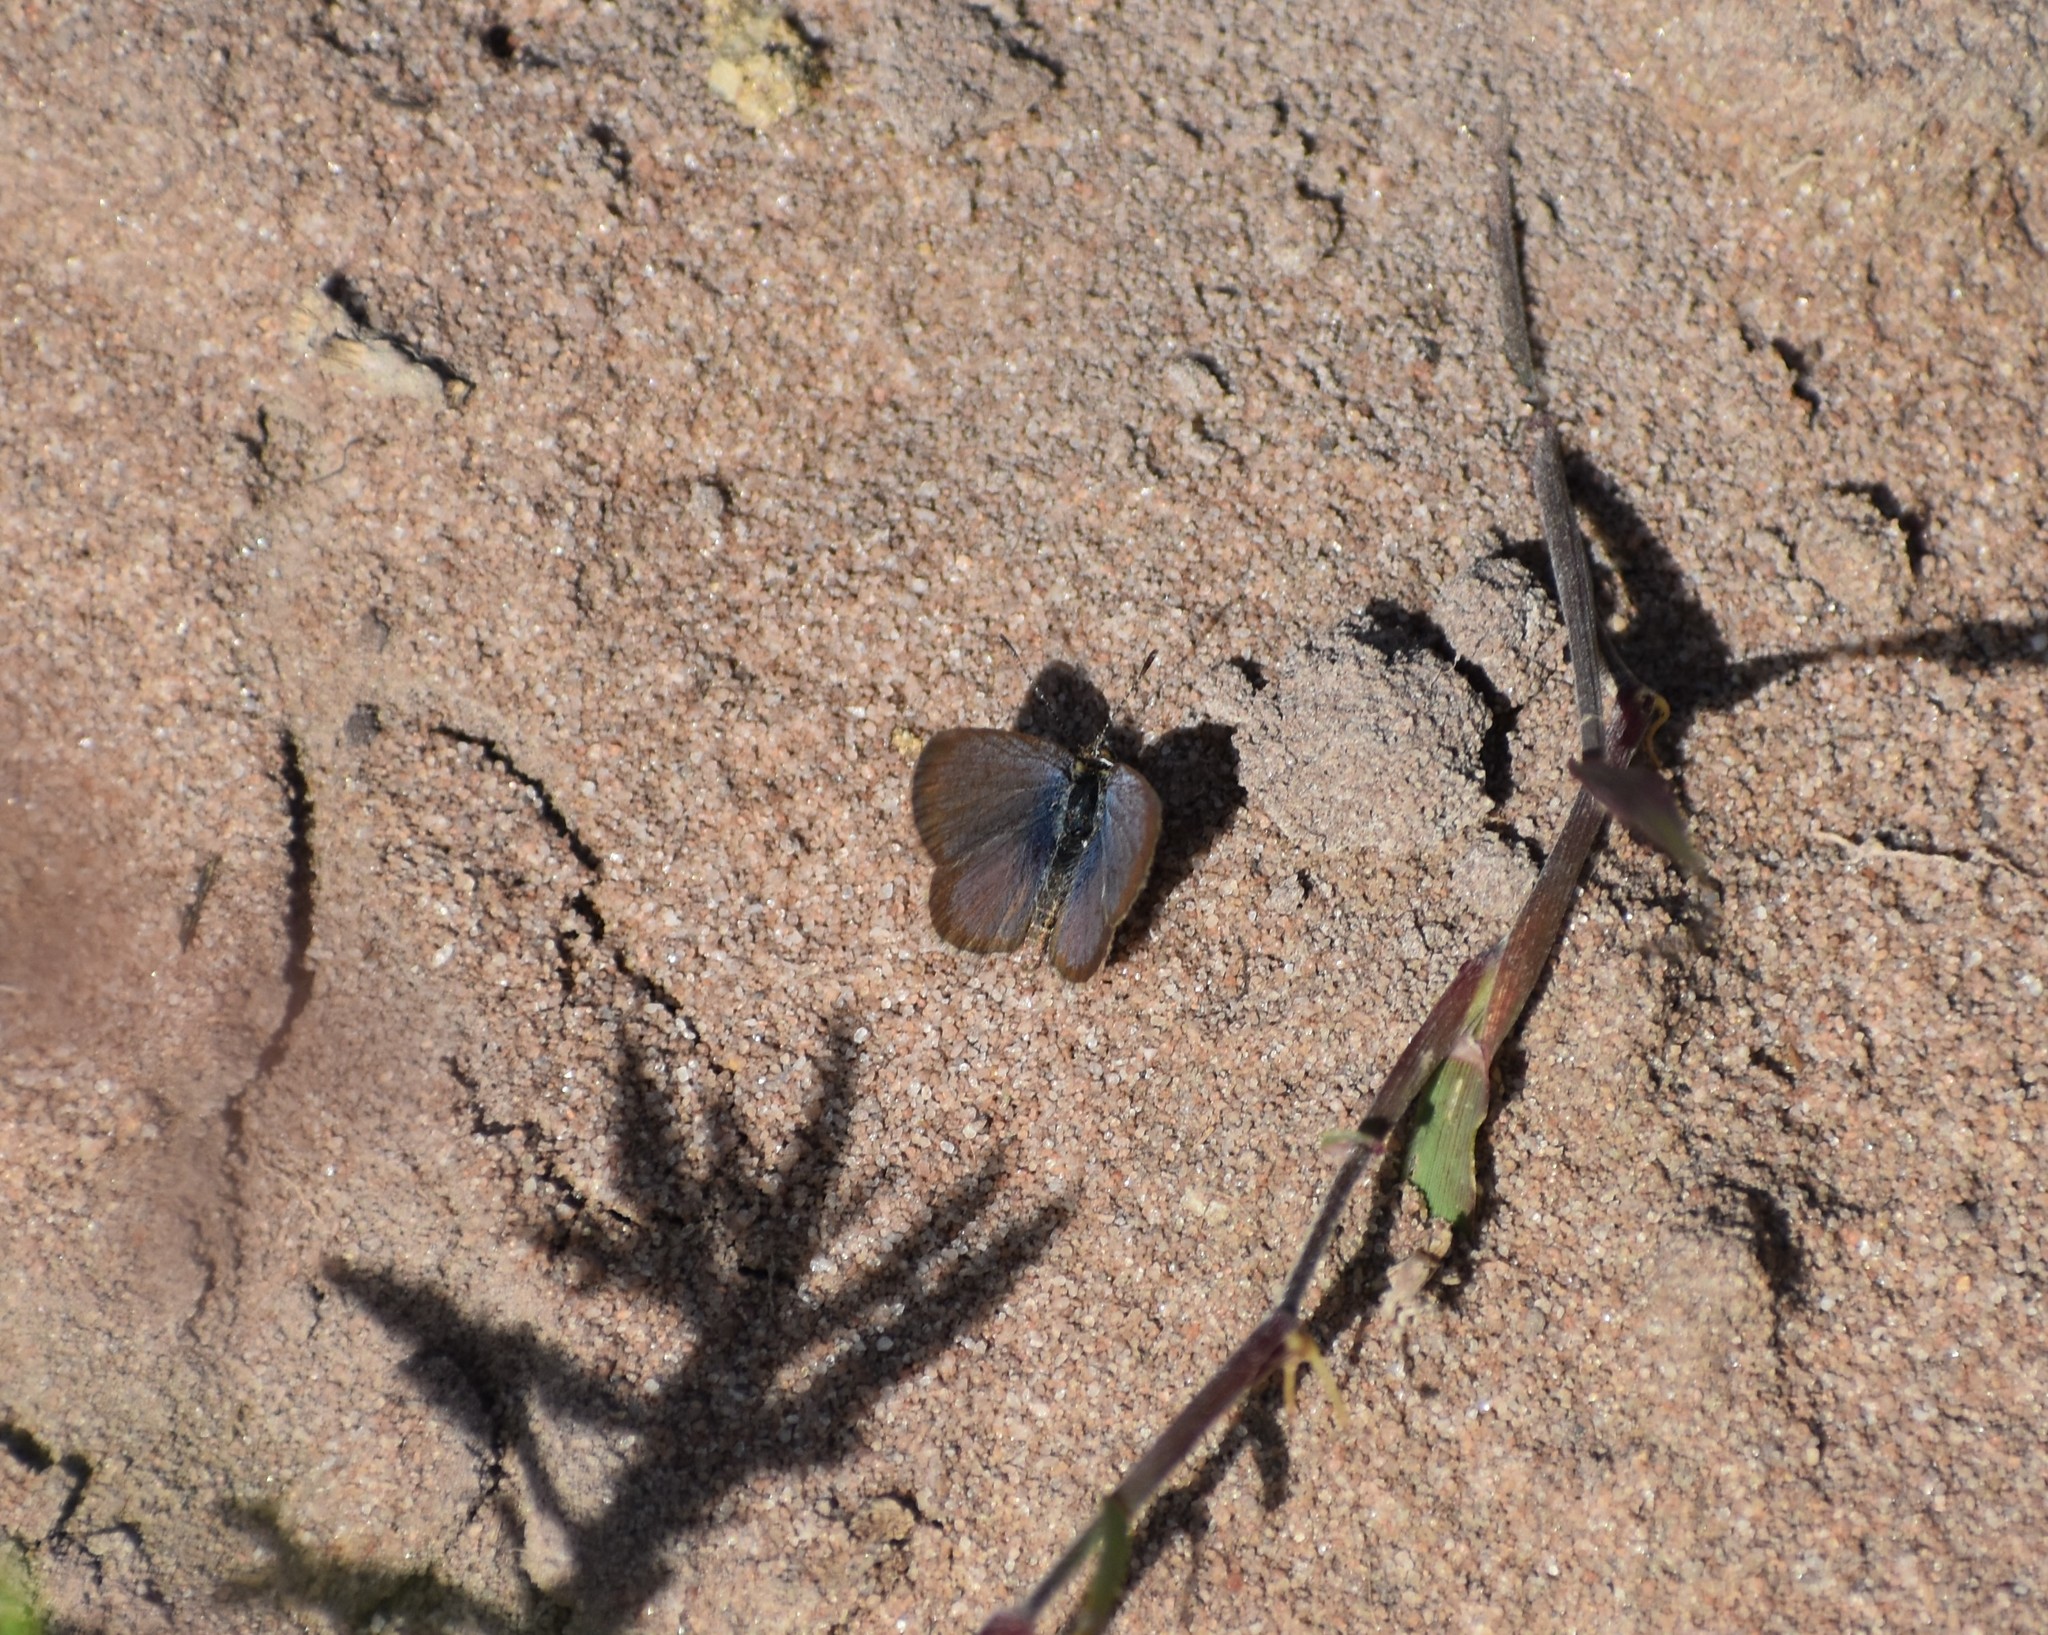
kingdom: Animalia
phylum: Arthropoda
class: Insecta
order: Lepidoptera
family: Lycaenidae
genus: Zizeeria
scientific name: Zizeeria knysna
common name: African grass blue
